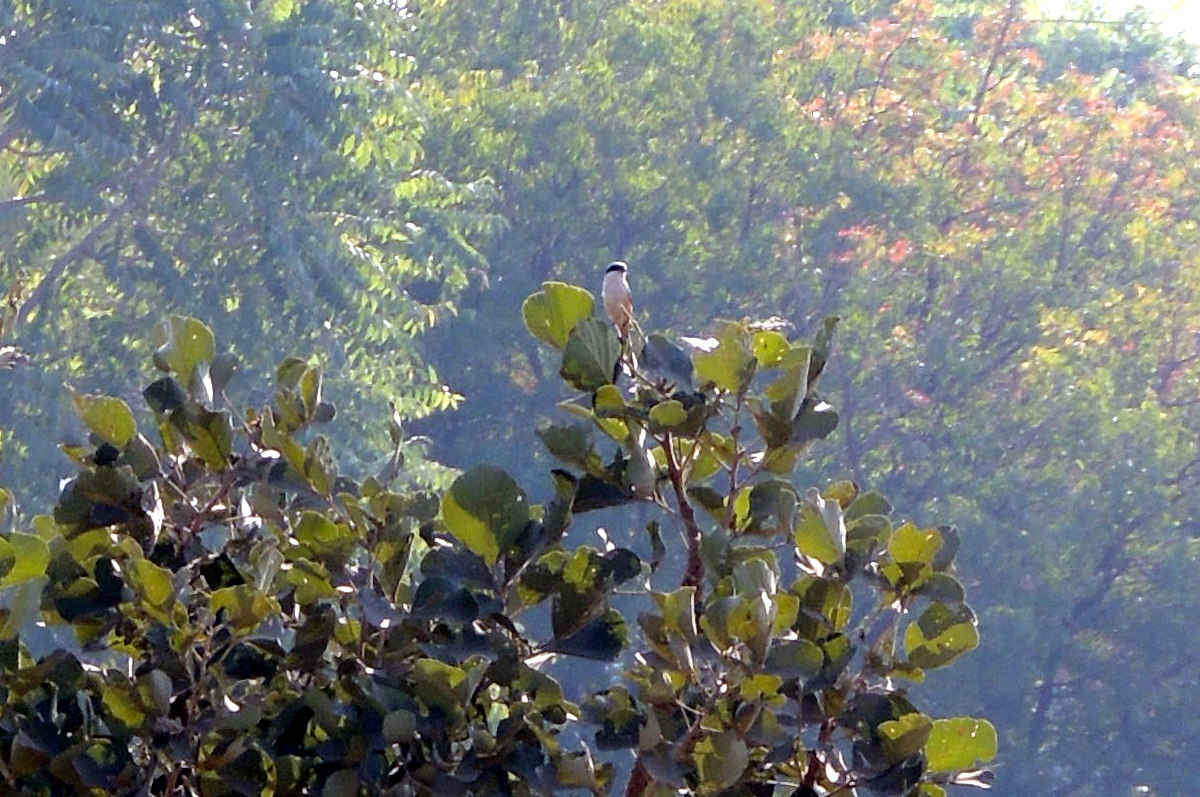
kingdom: Plantae
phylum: Tracheophyta
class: Magnoliopsida
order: Fabales
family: Fabaceae
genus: Butea
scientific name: Butea monosperma
